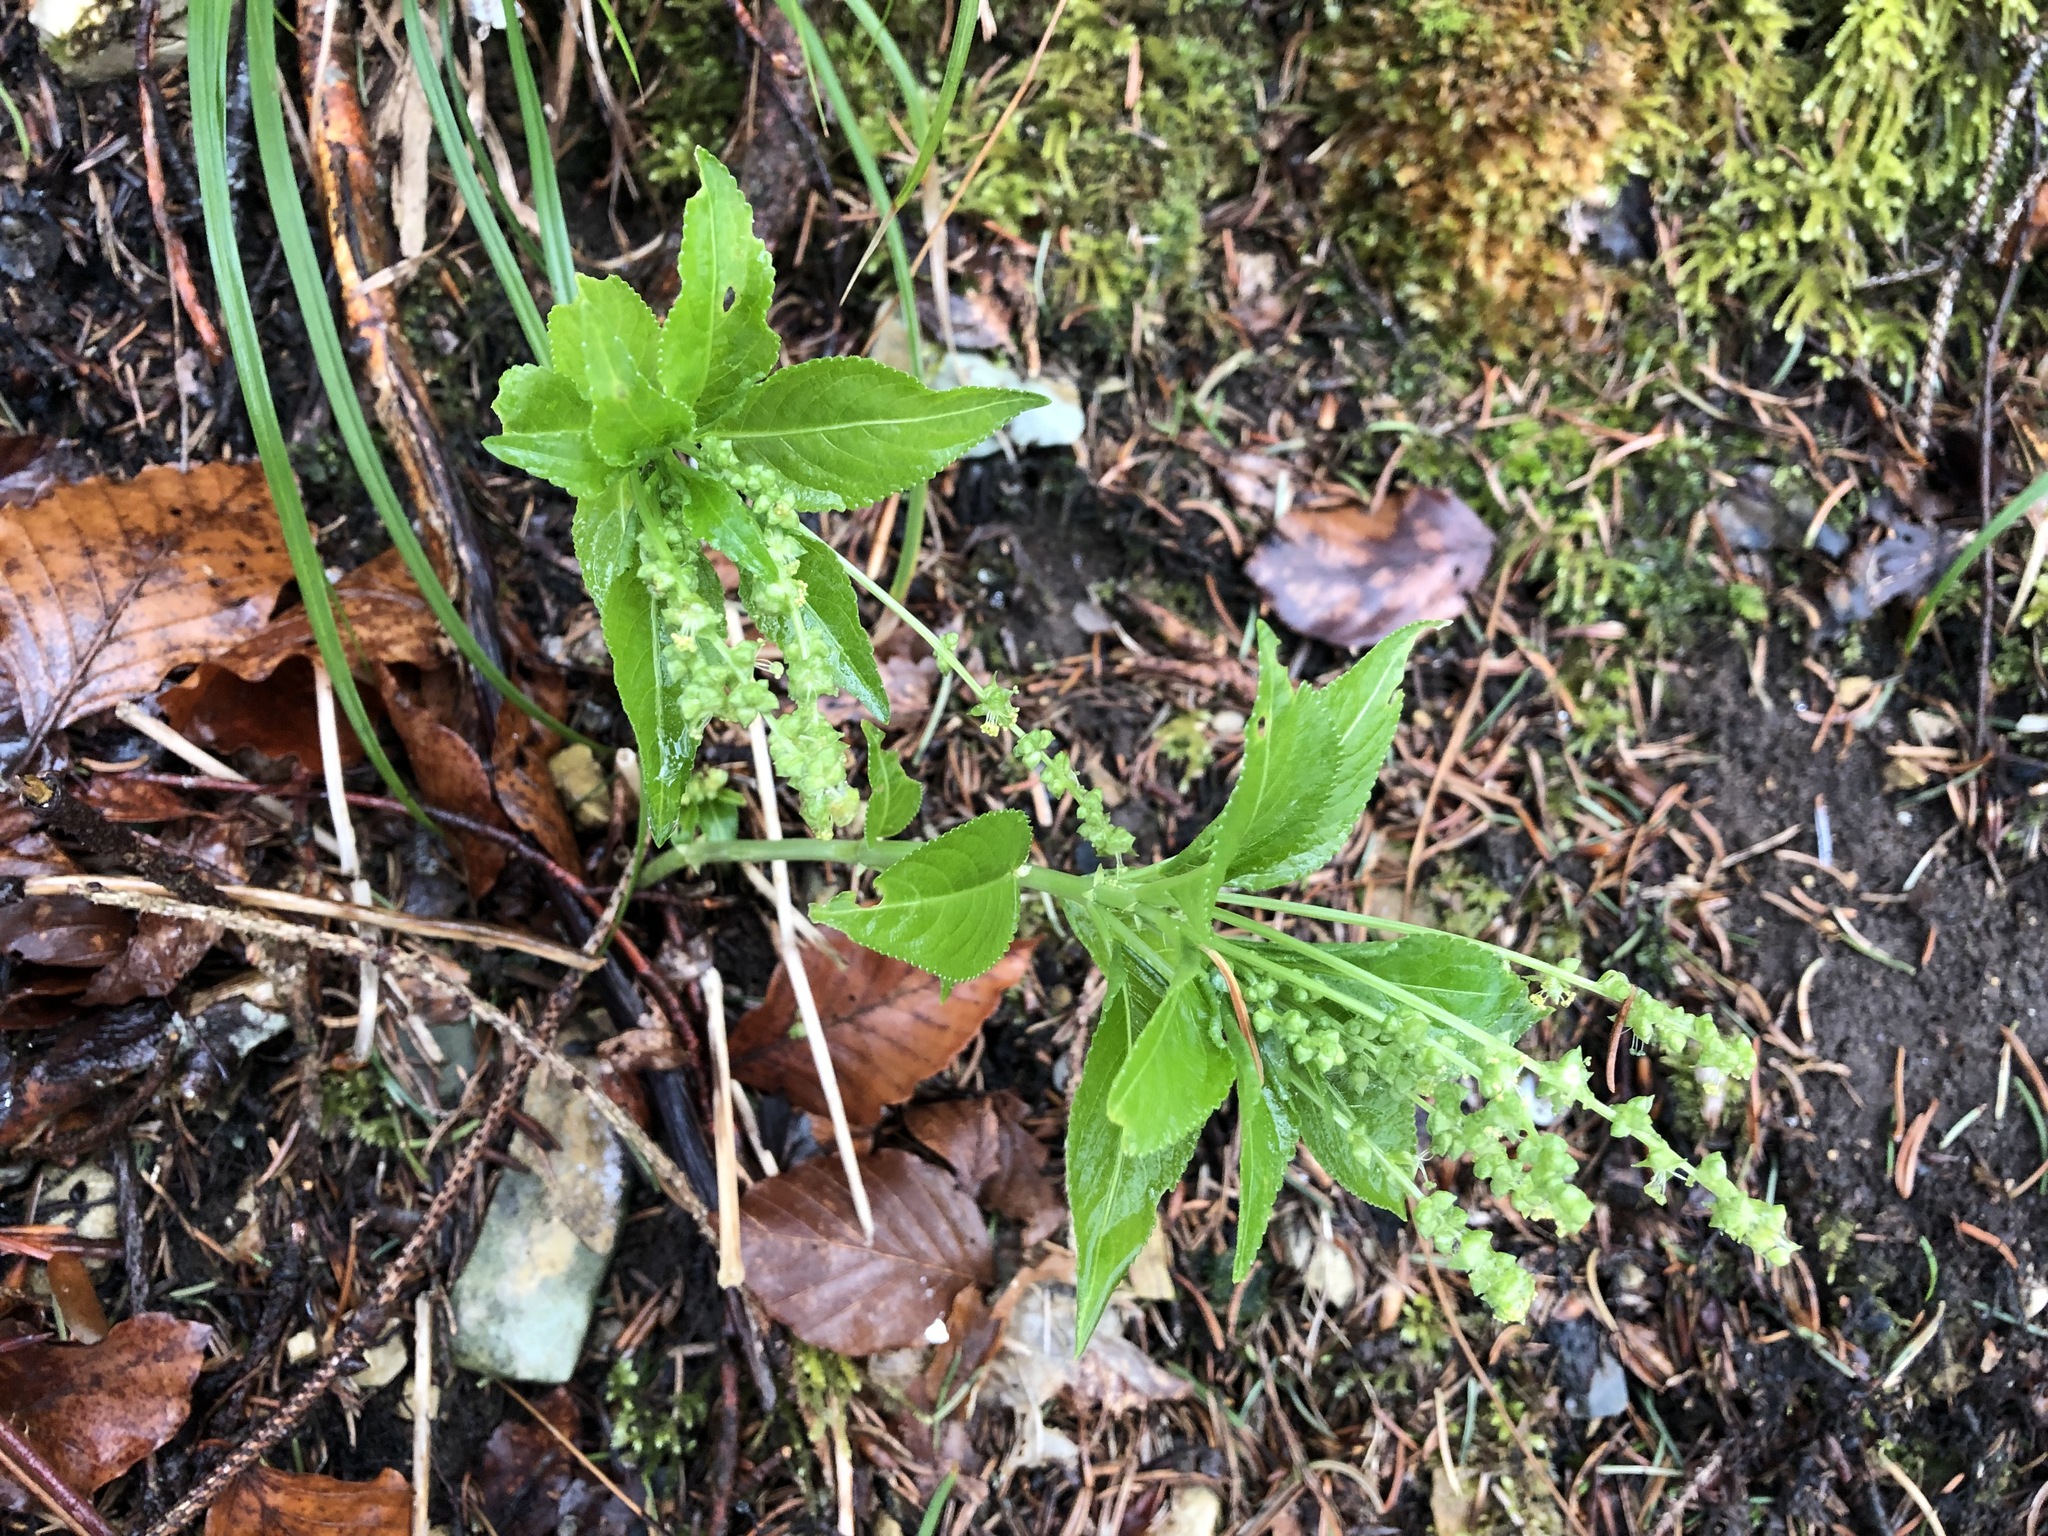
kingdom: Plantae
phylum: Tracheophyta
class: Magnoliopsida
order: Malpighiales
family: Euphorbiaceae
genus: Mercurialis
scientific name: Mercurialis perennis
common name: Dog mercury
